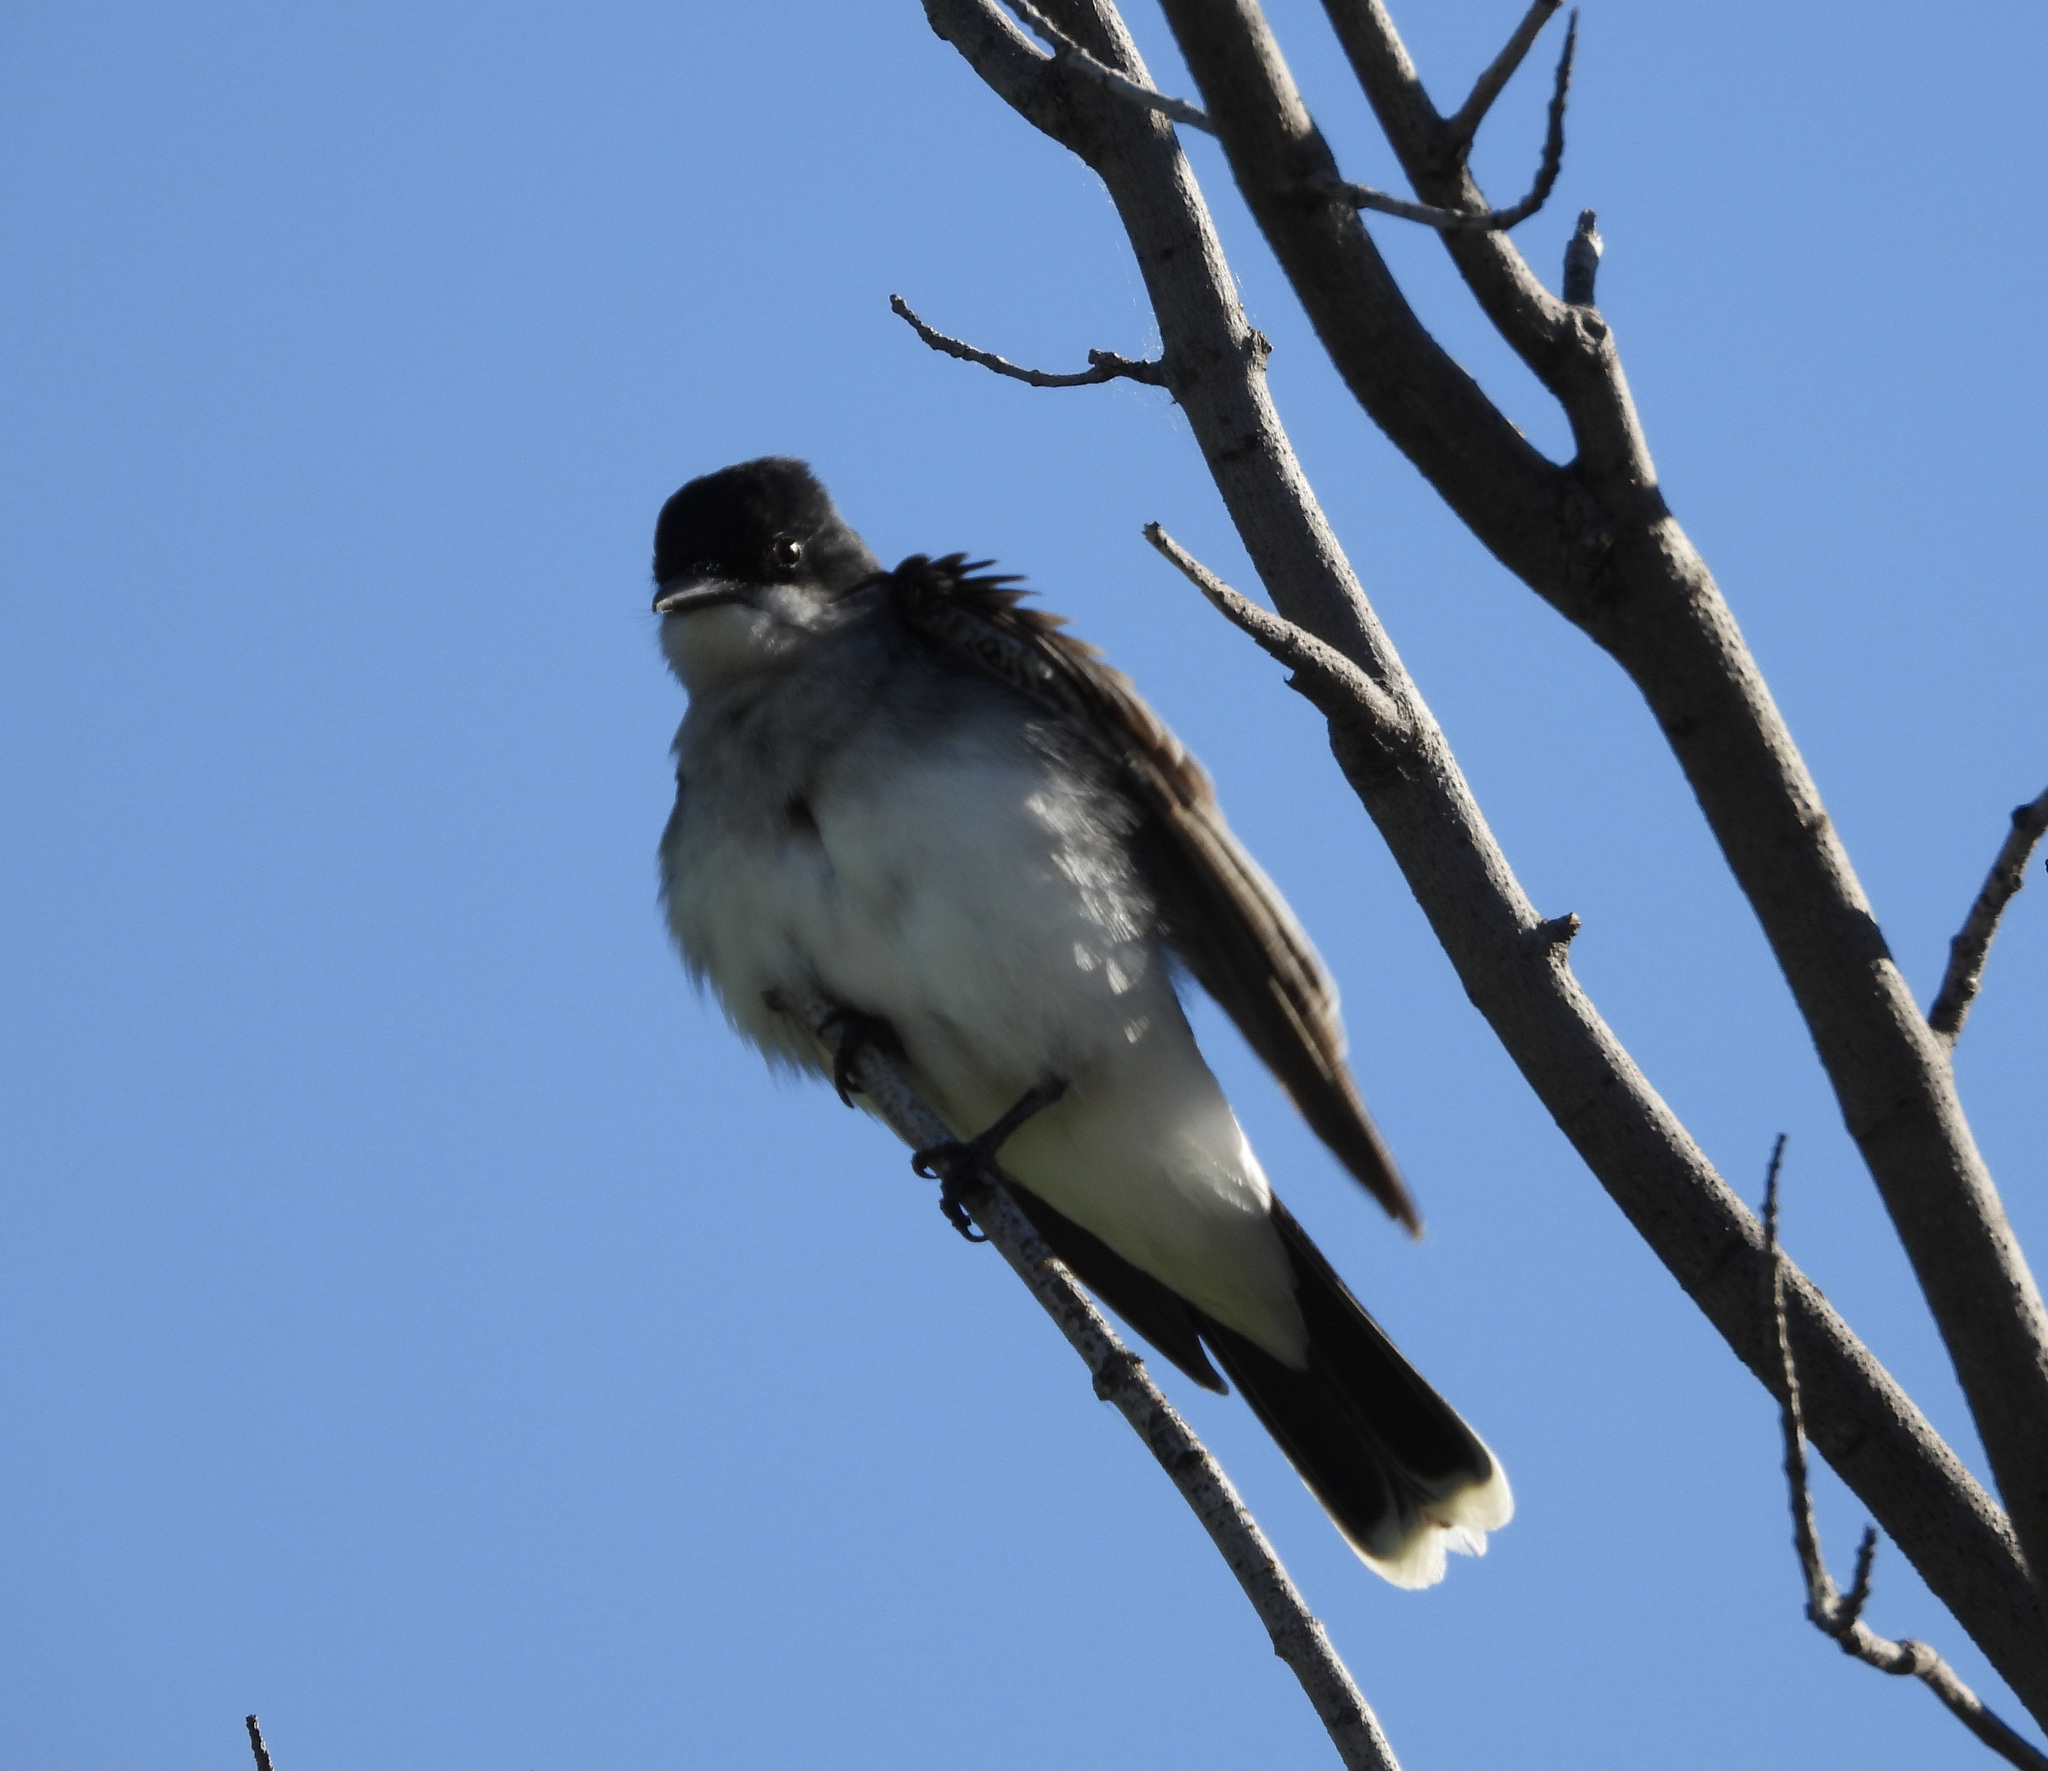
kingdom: Animalia
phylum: Chordata
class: Aves
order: Passeriformes
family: Tyrannidae
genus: Tyrannus
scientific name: Tyrannus tyrannus
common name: Eastern kingbird
